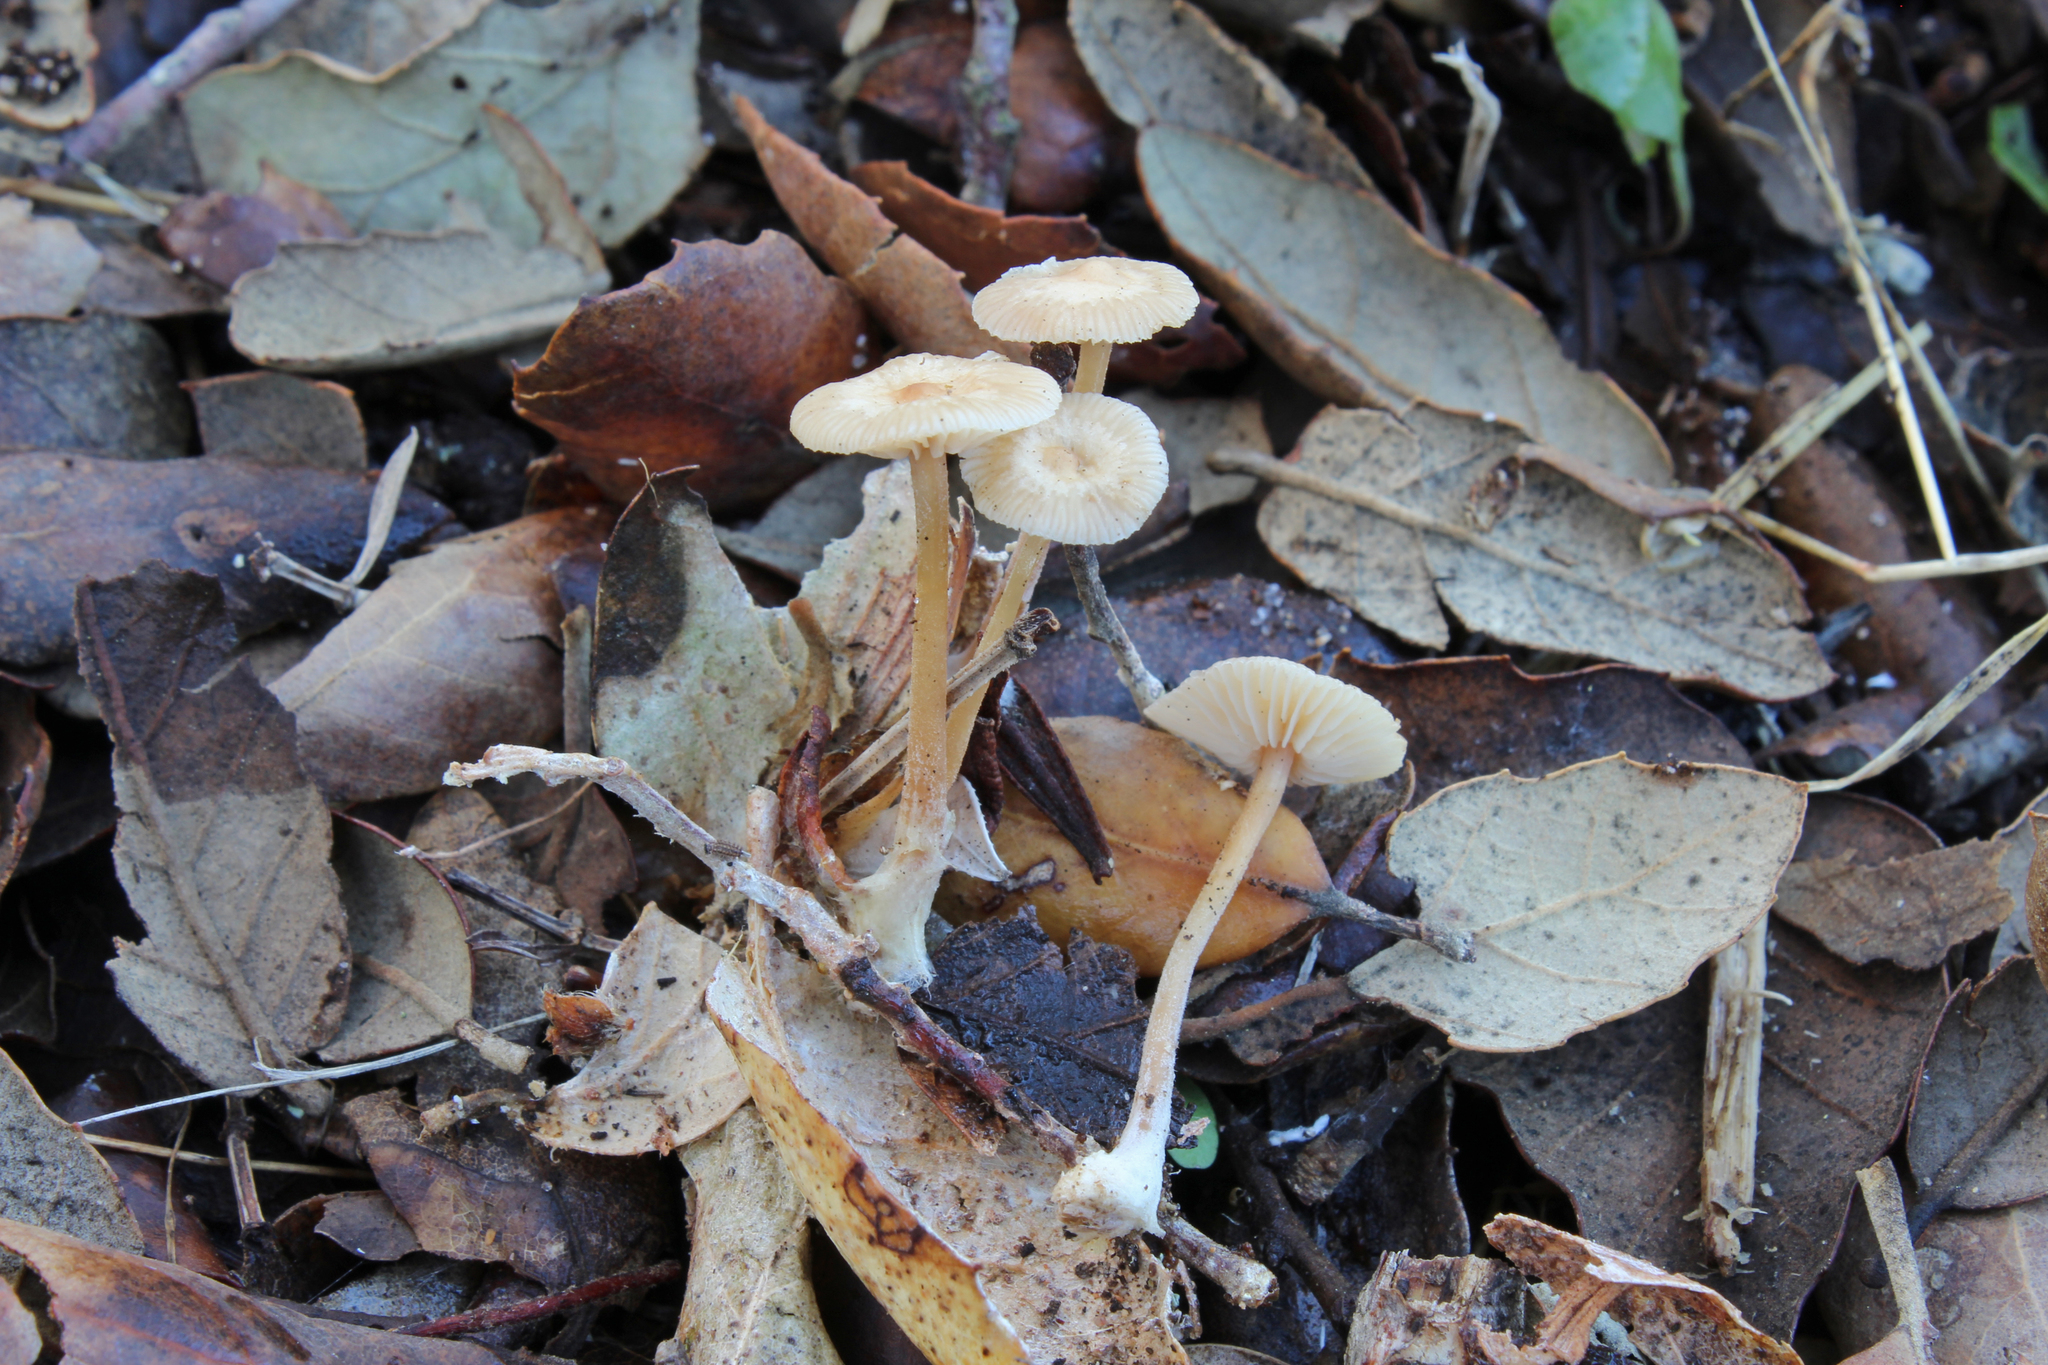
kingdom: Fungi
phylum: Basidiomycota
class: Agaricomycetes
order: Agaricales
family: Omphalotaceae
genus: Gymnopus
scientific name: Gymnopus terginus
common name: Hairy toughshank
